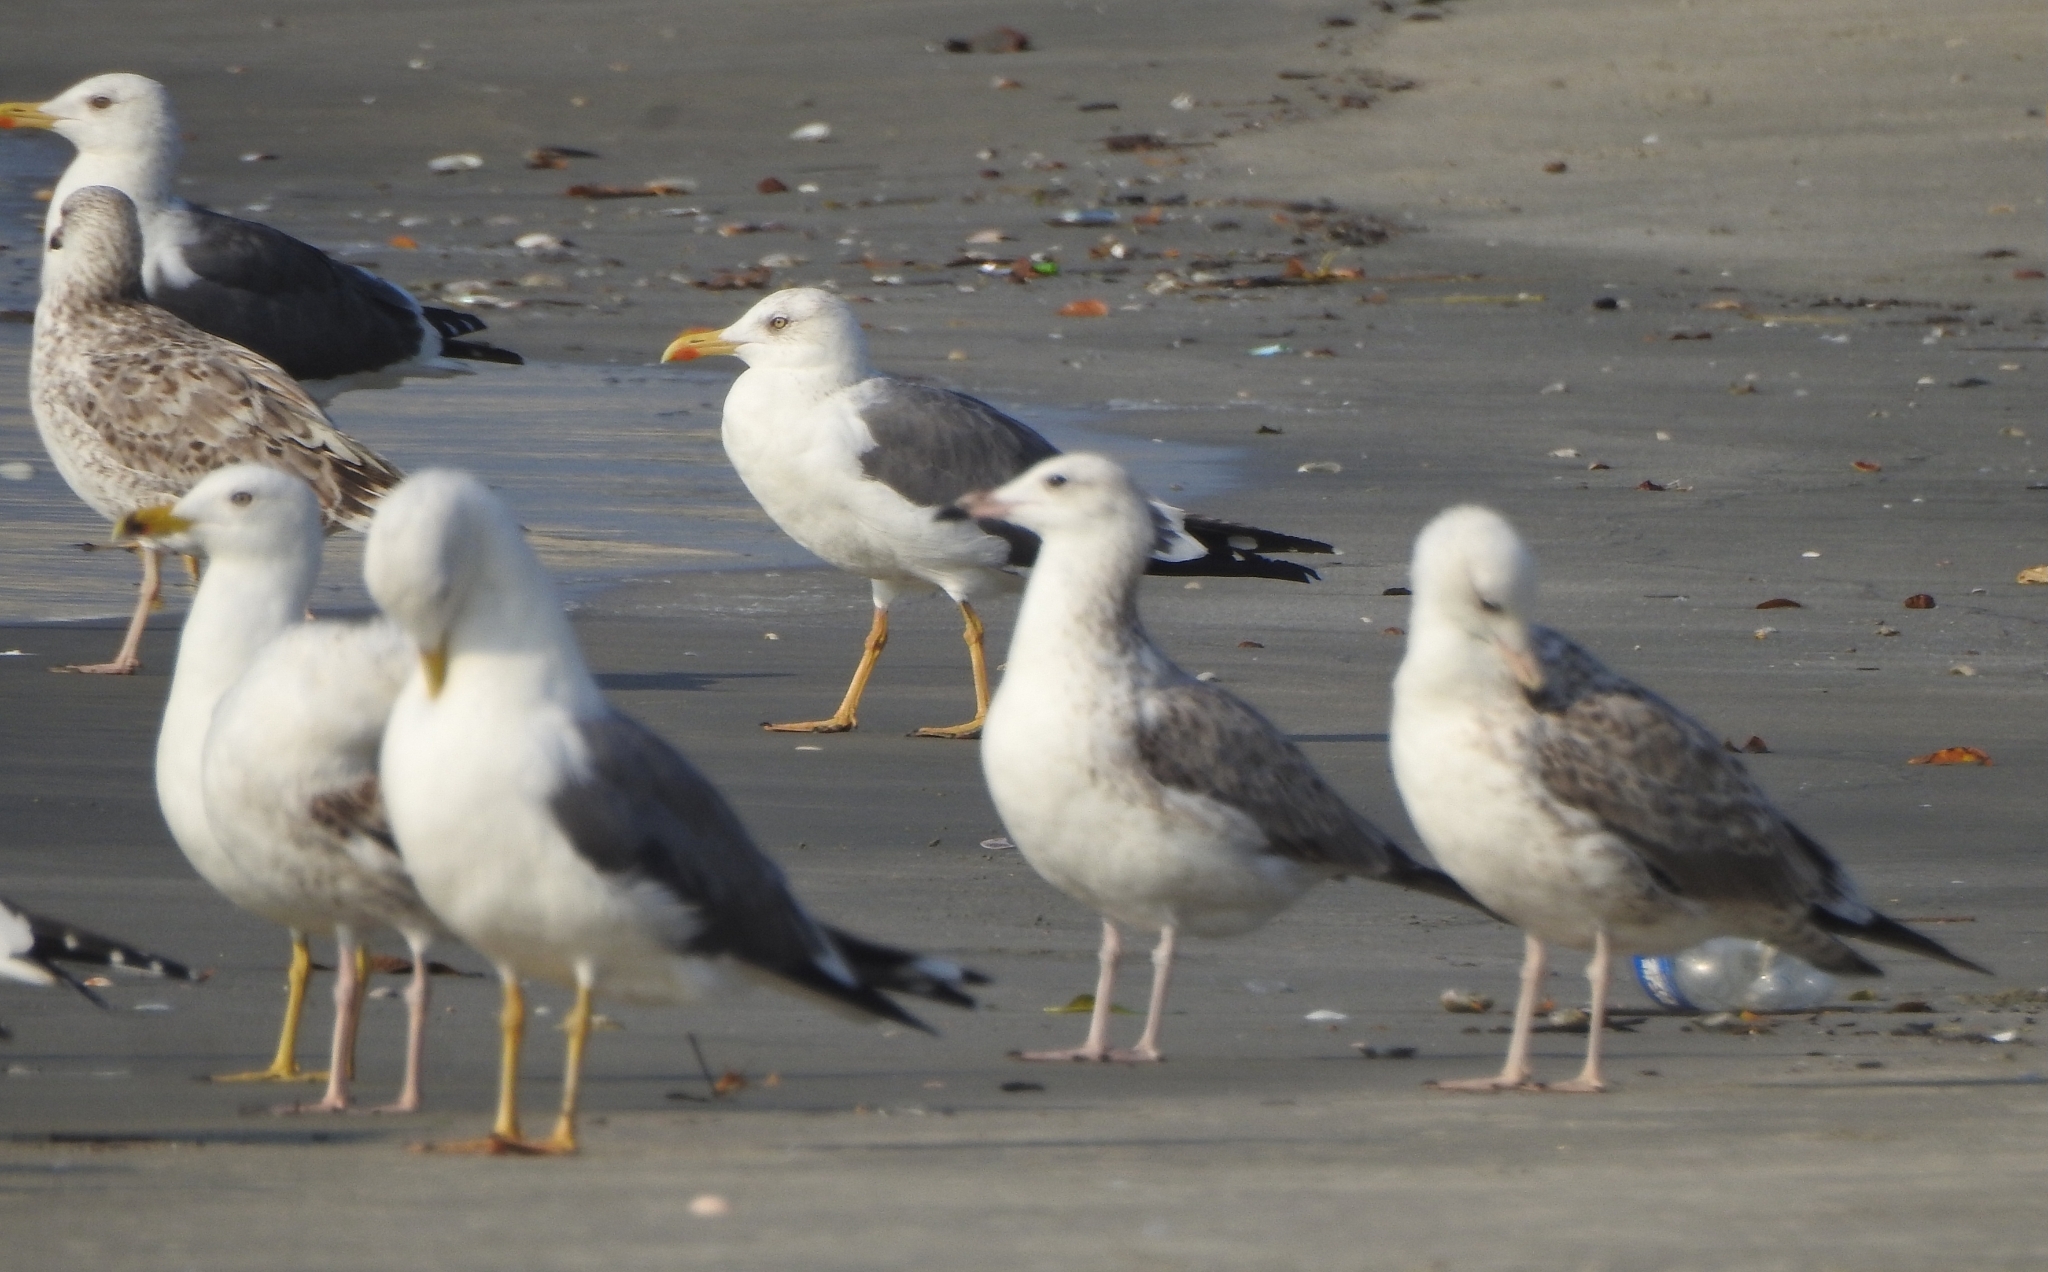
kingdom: Animalia
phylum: Chordata
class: Aves
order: Charadriiformes
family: Laridae
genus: Larus
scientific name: Larus fuscus
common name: Lesser black-backed gull
